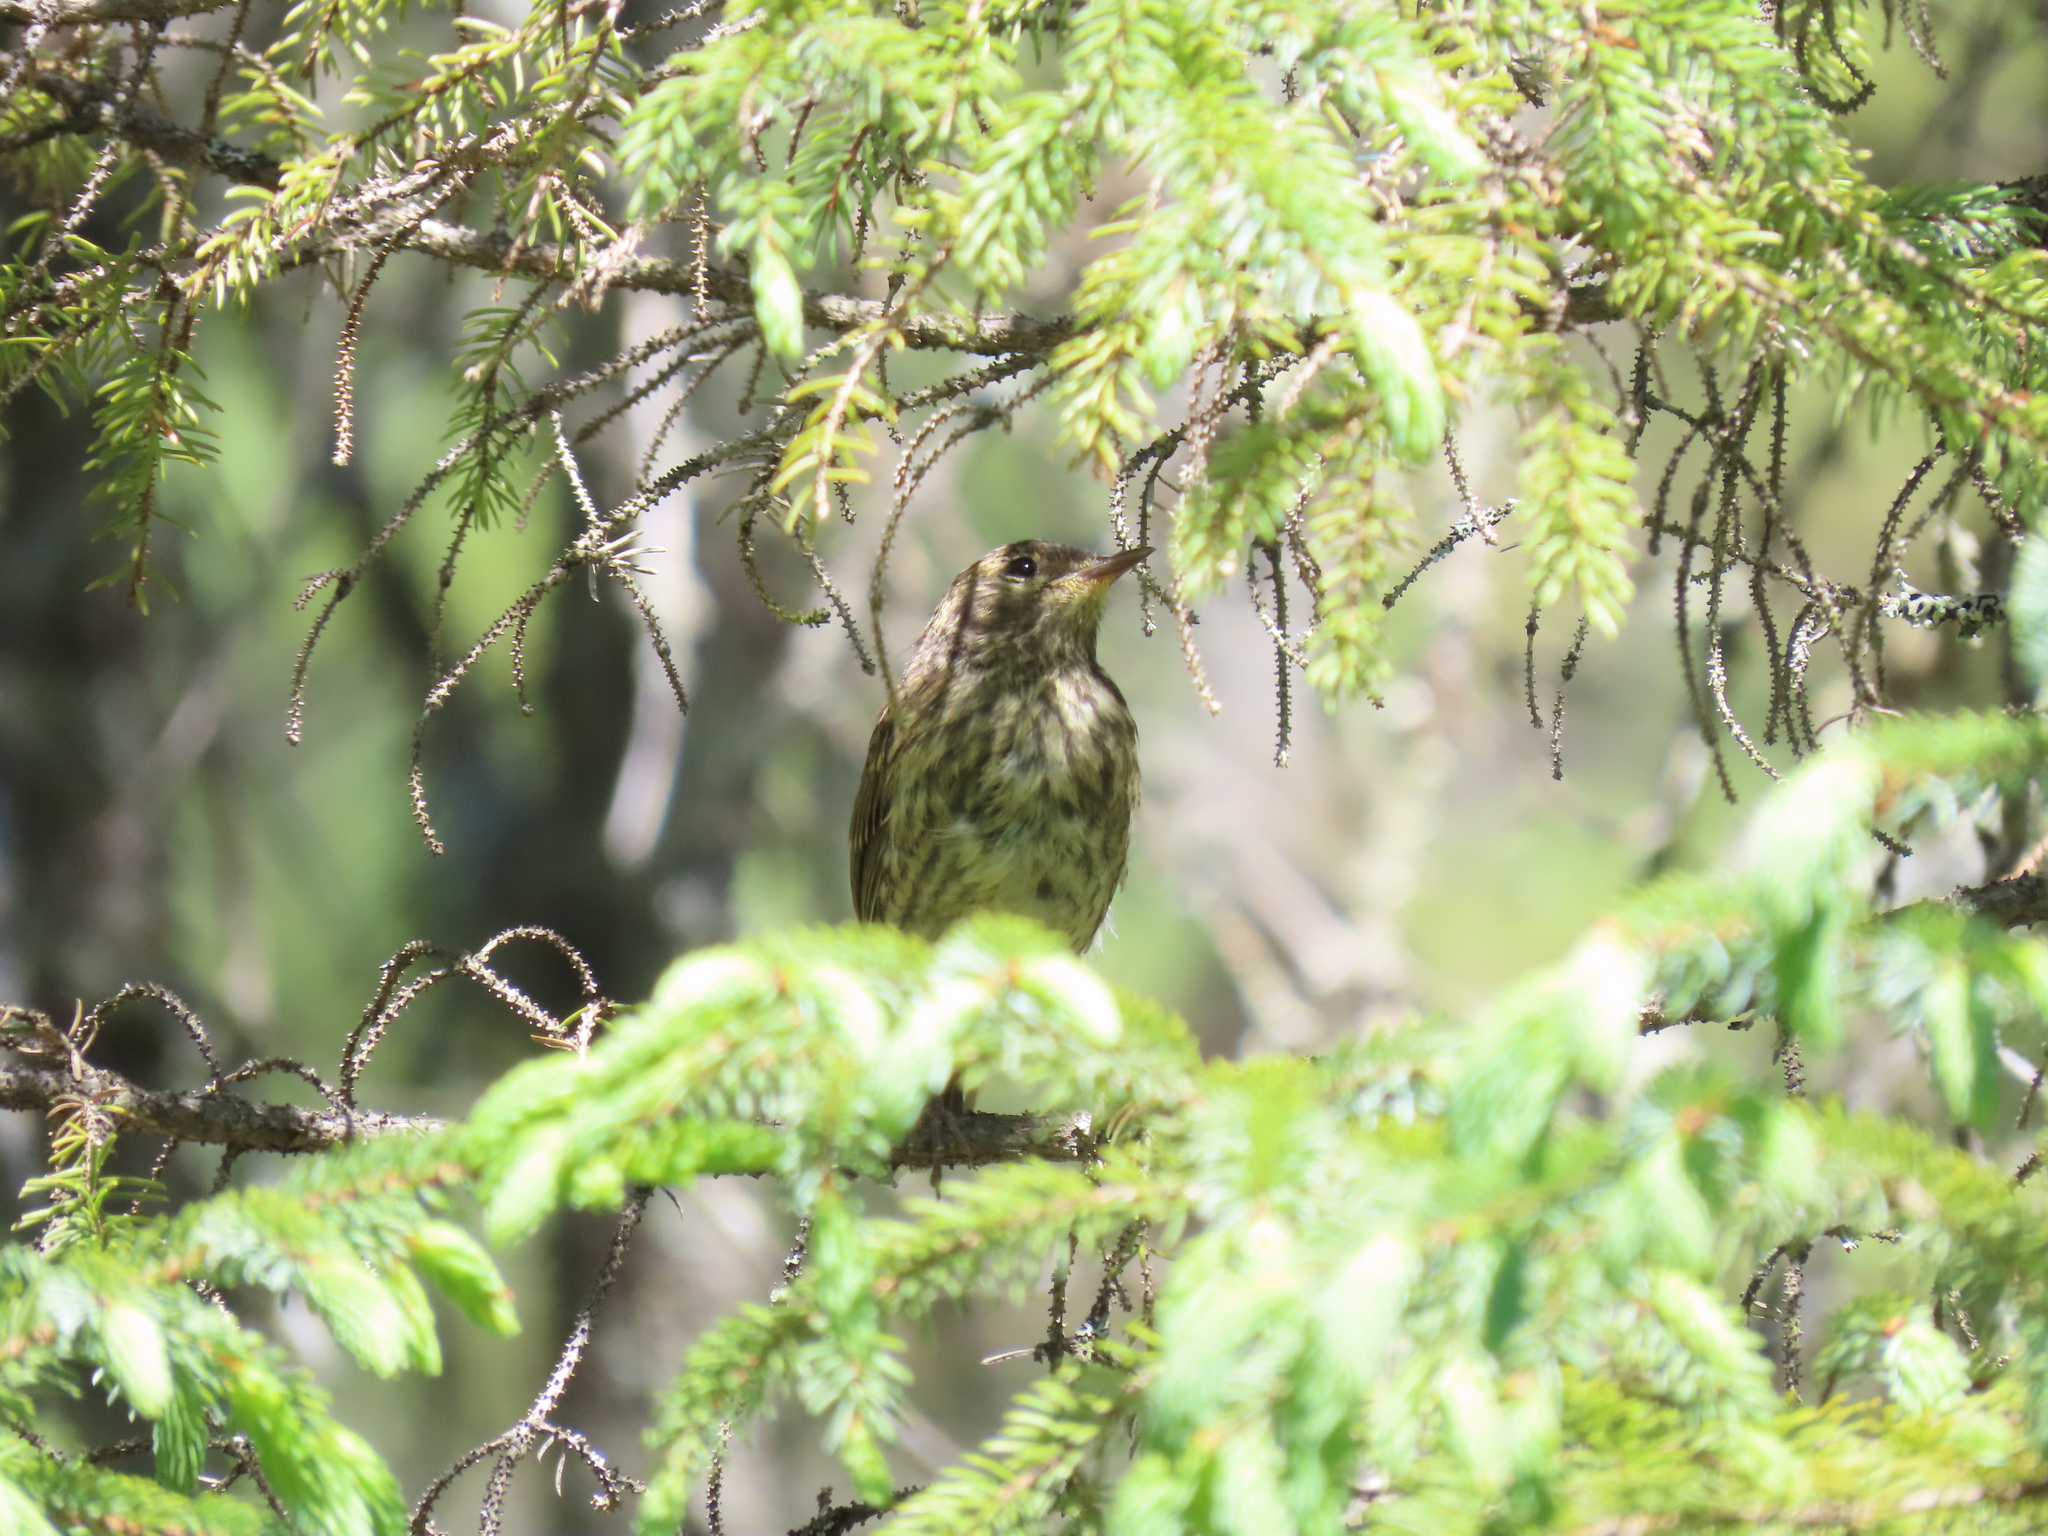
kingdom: Animalia
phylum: Chordata
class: Aves
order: Passeriformes
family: Parulidae
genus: Setophaga
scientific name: Setophaga palmarum
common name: Palm warbler
